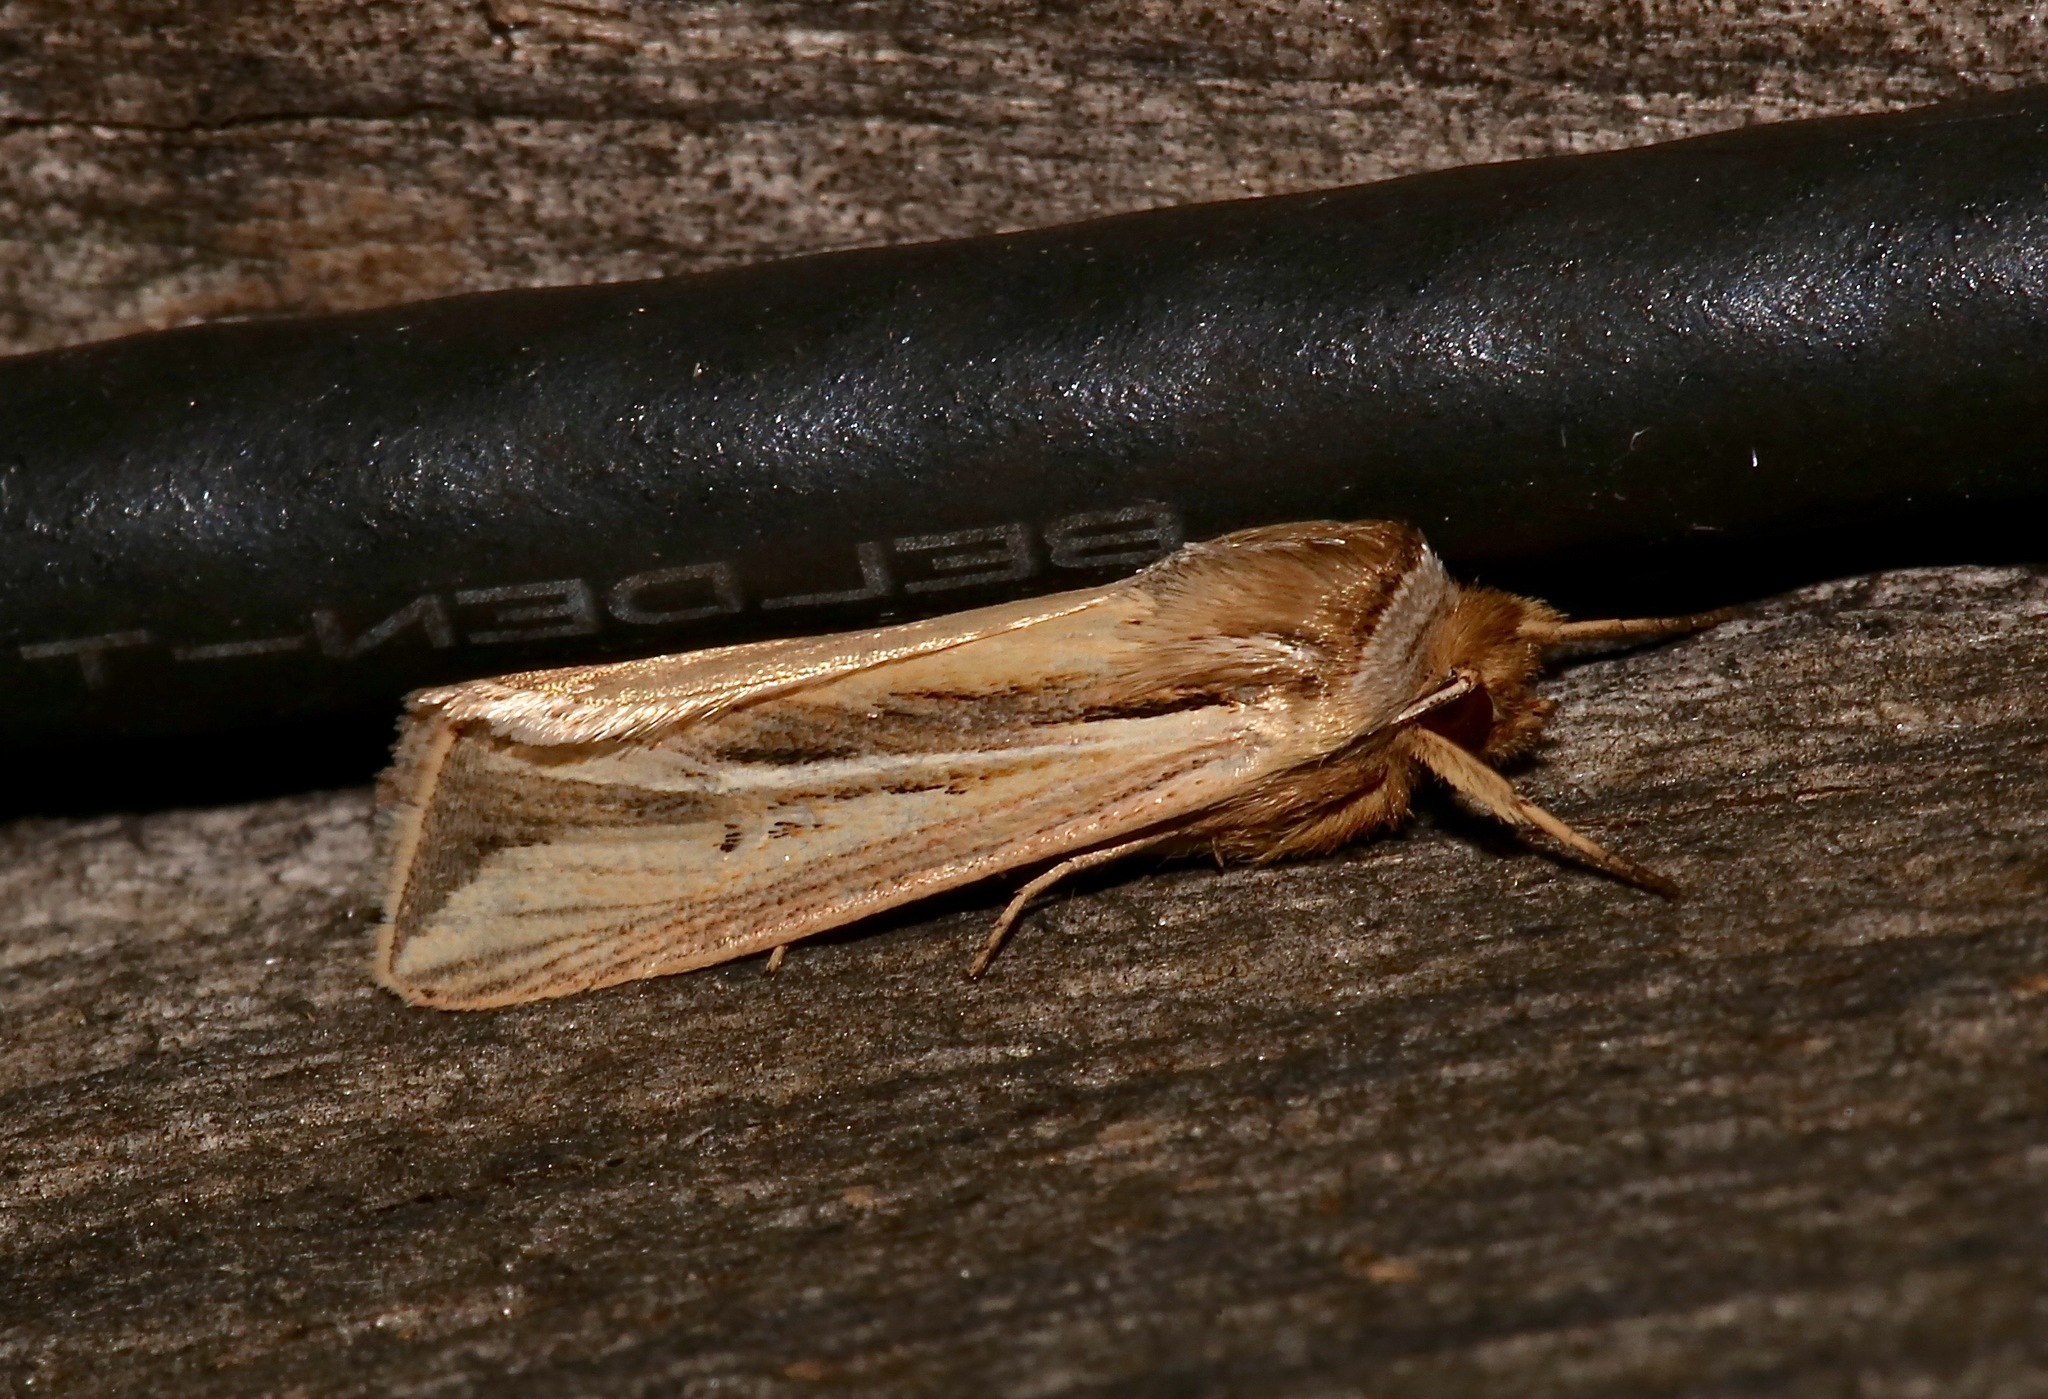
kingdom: Animalia
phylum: Arthropoda
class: Insecta
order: Lepidoptera
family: Noctuidae
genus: Dargida
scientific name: Dargida diffusa
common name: Wheat head armyworm
